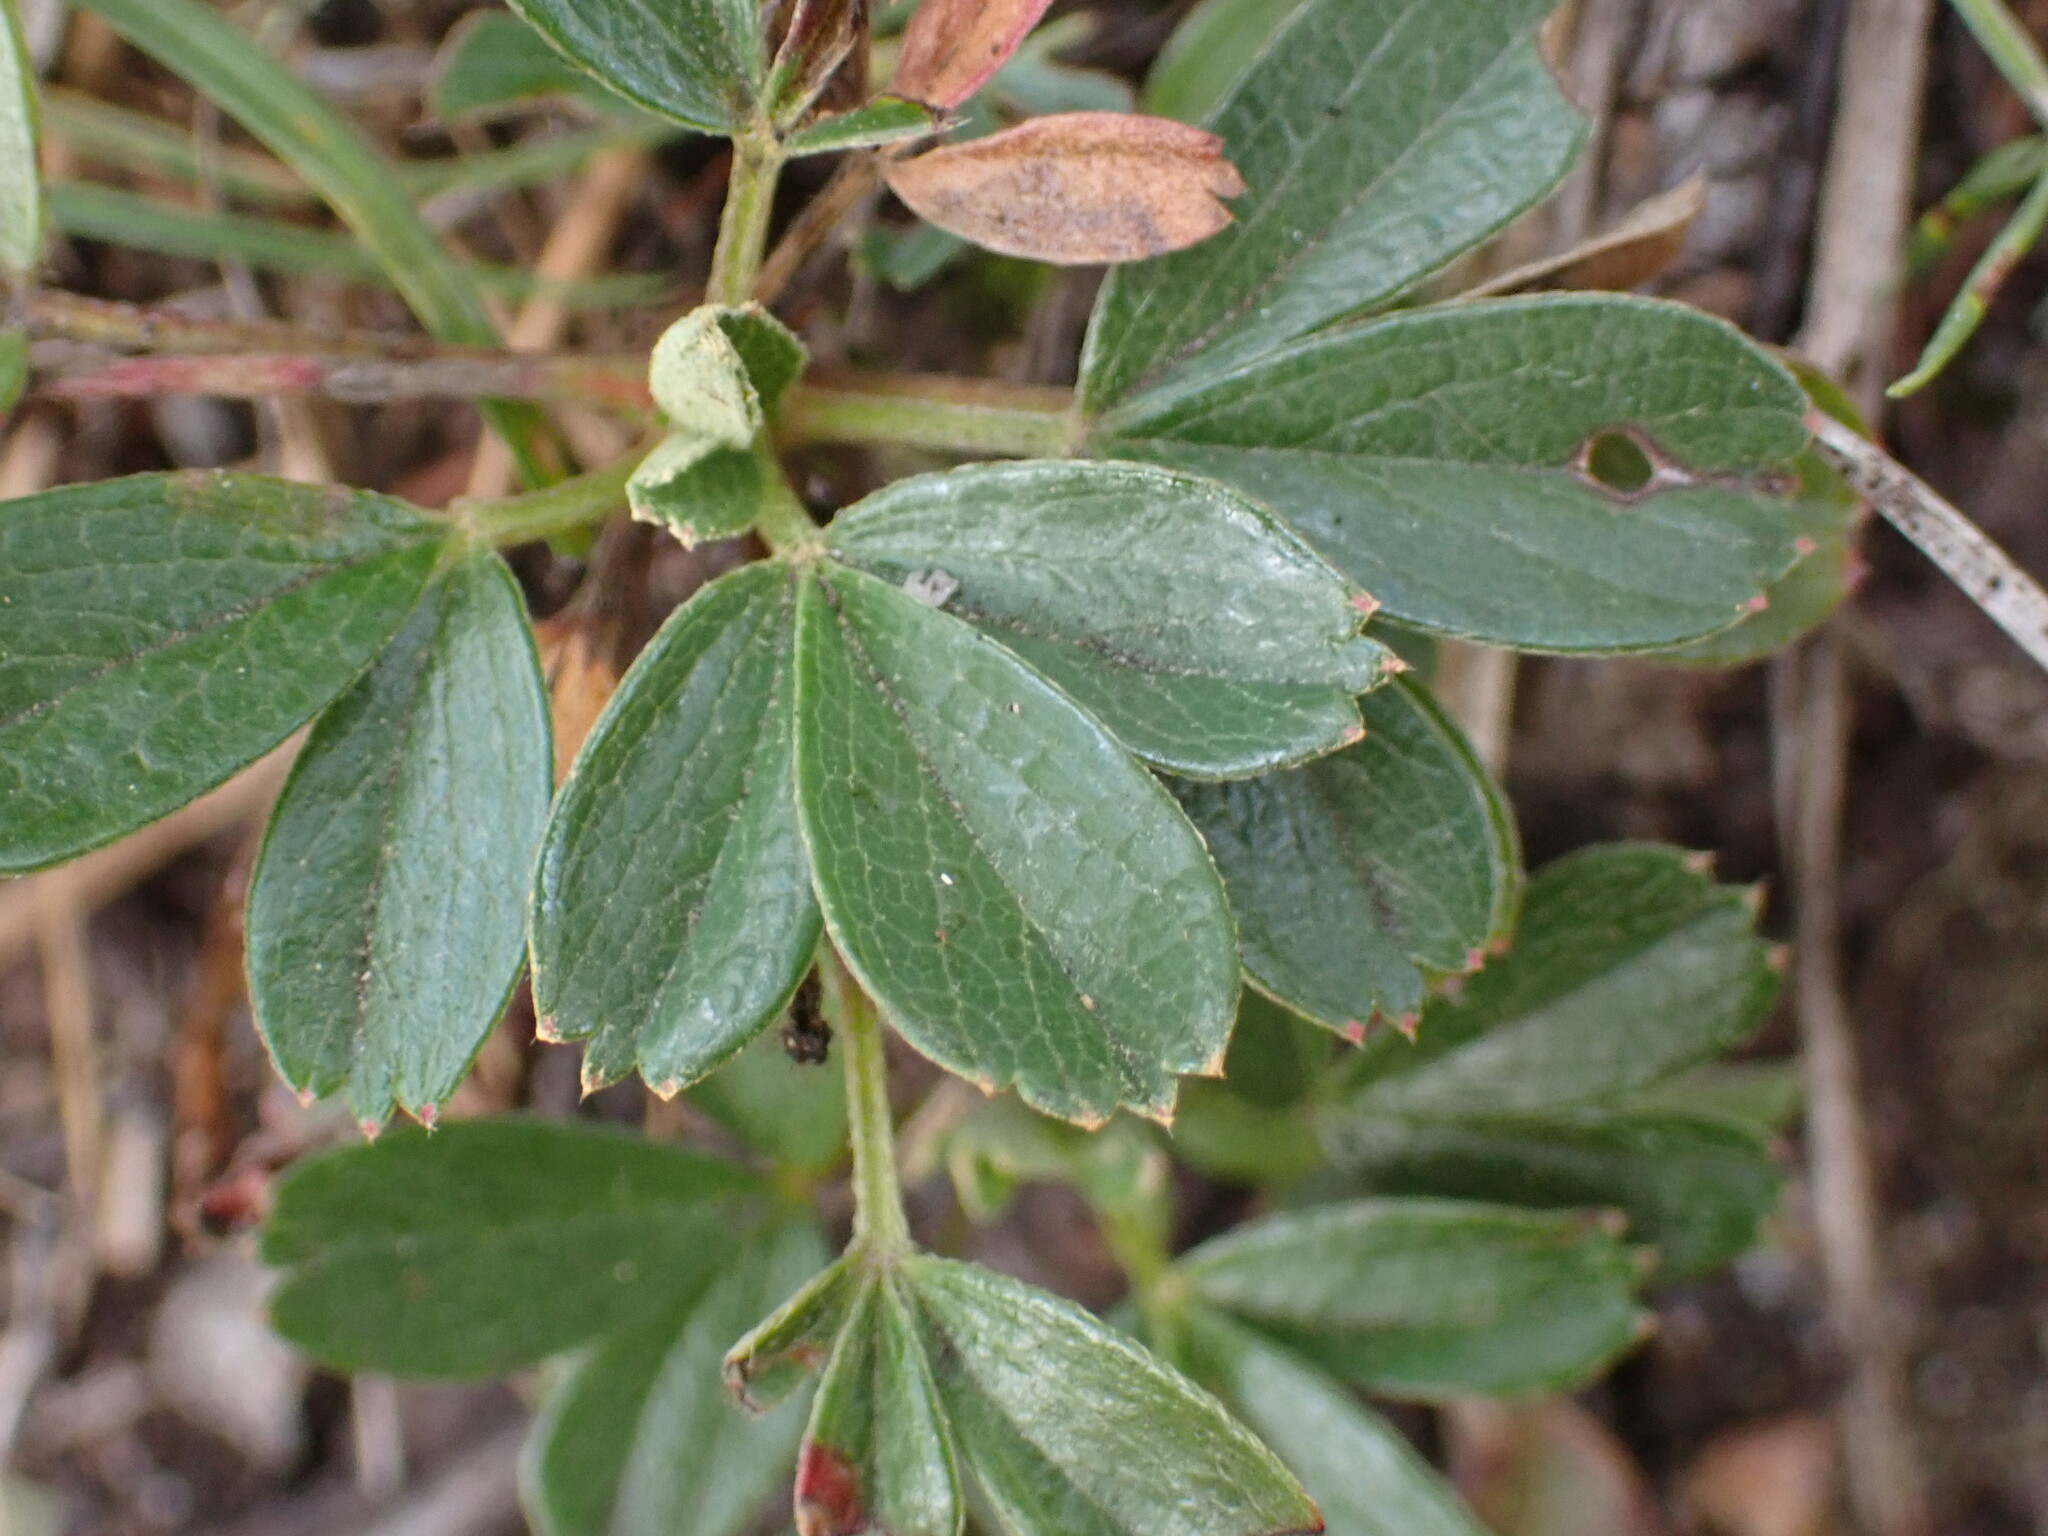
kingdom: Plantae
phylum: Tracheophyta
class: Magnoliopsida
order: Rosales
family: Rosaceae
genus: Sibbaldia
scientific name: Sibbaldia tridentata
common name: Three-toothed cinquefoil
